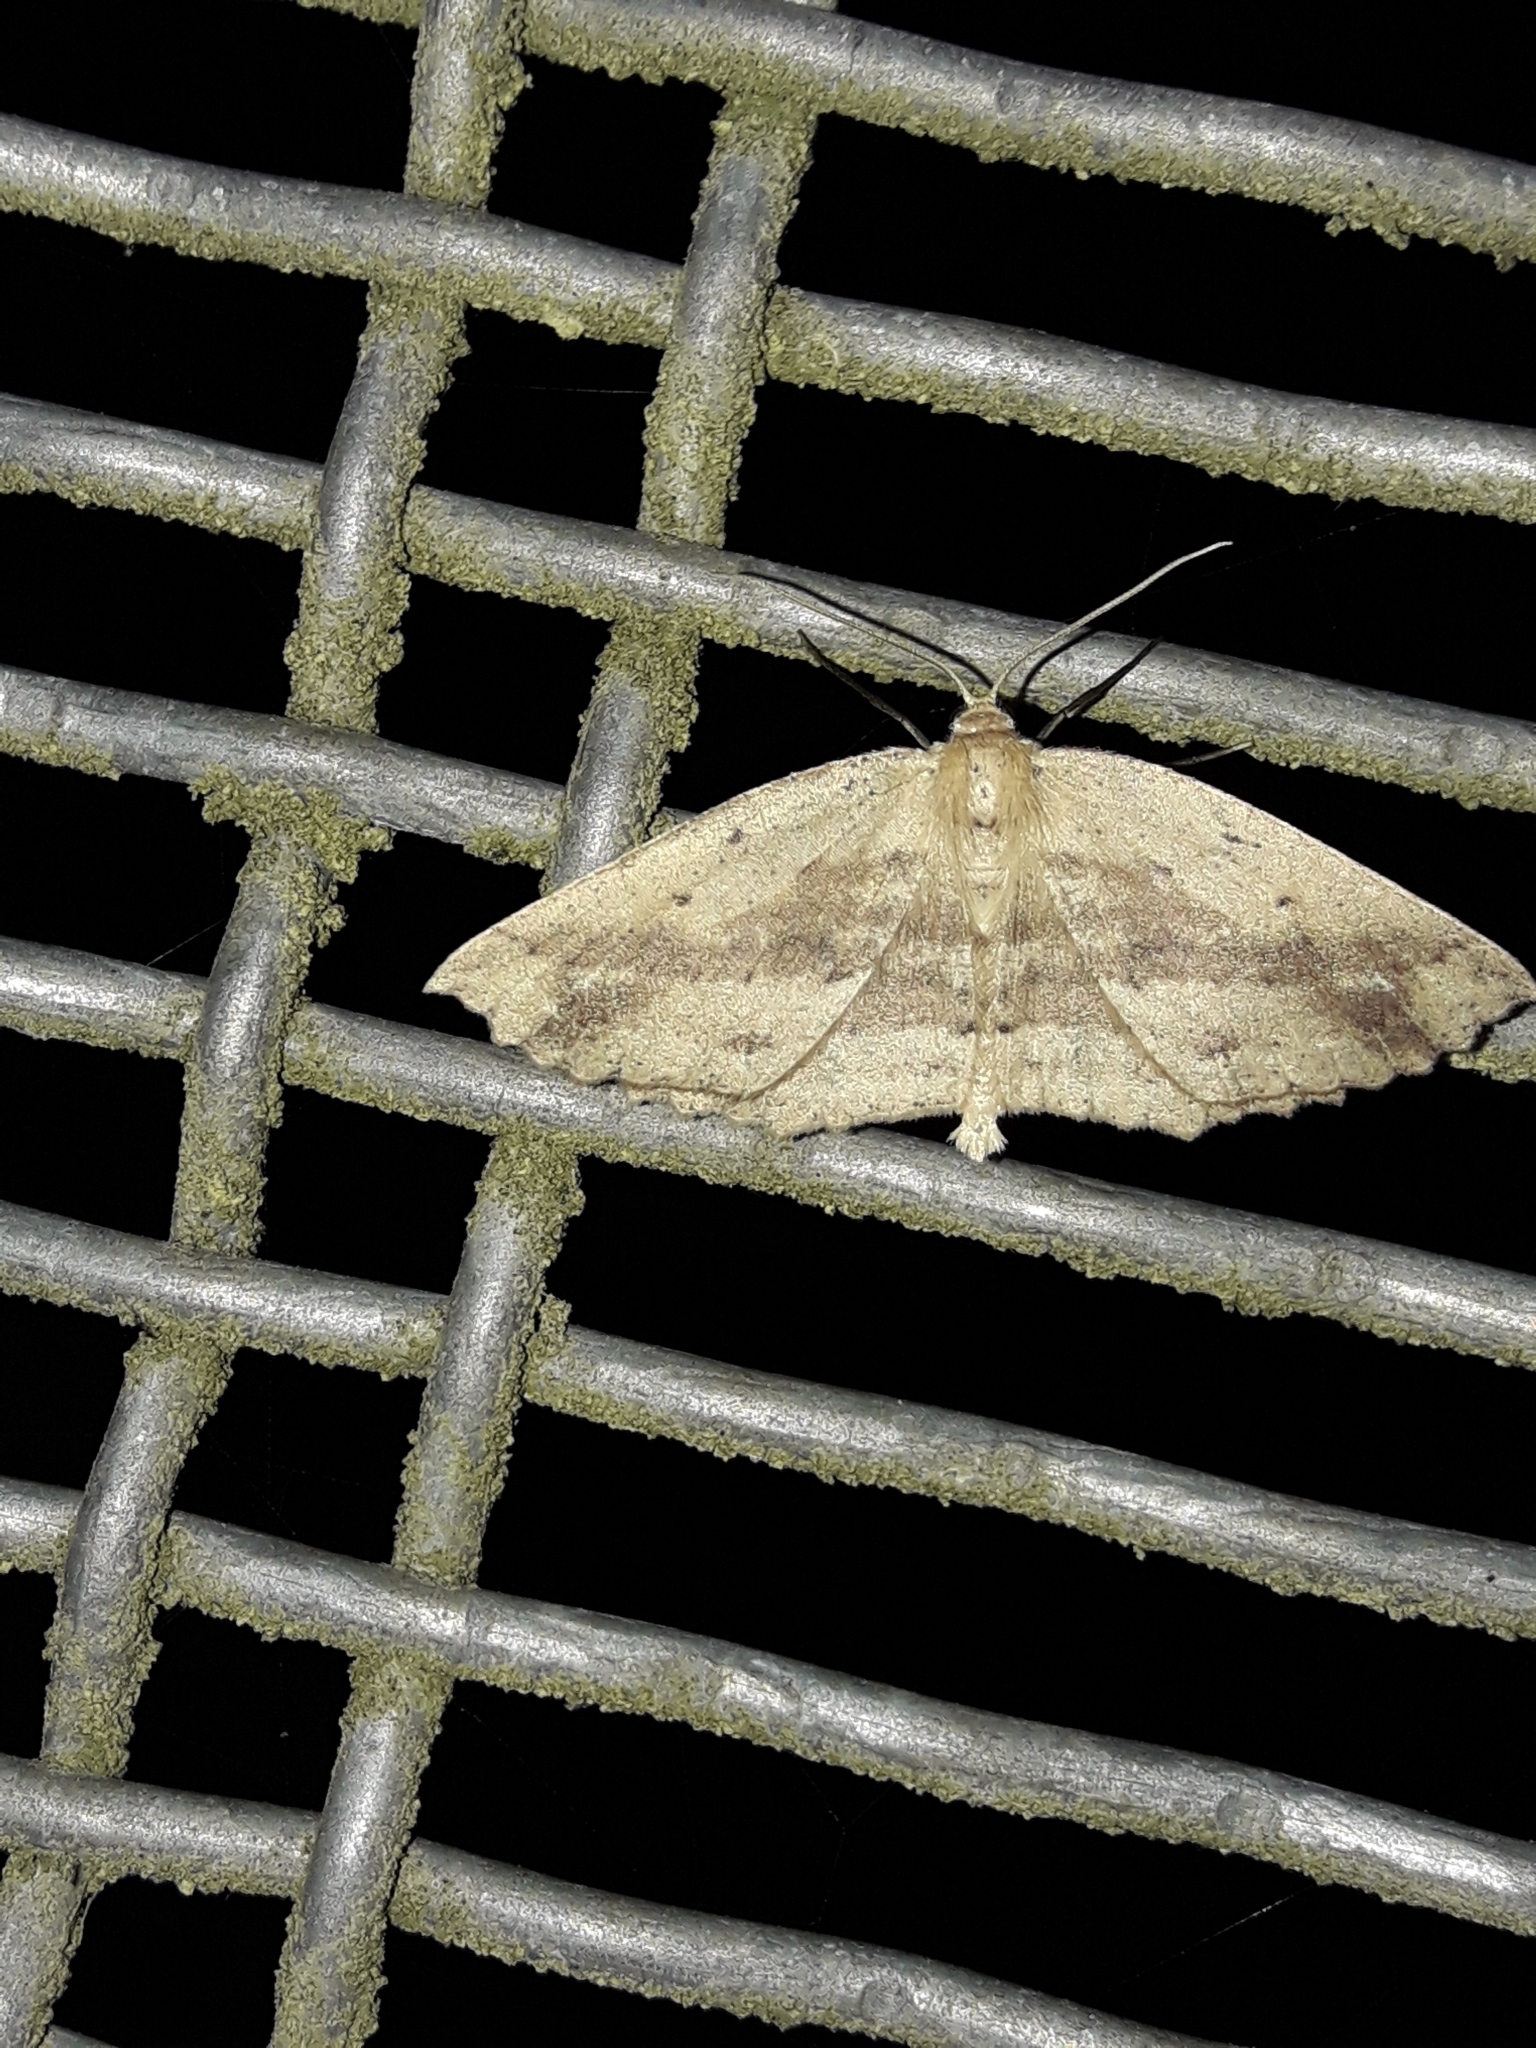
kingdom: Animalia
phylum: Arthropoda
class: Insecta
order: Lepidoptera
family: Geometridae
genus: Xyridacma
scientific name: Xyridacma veronicae
